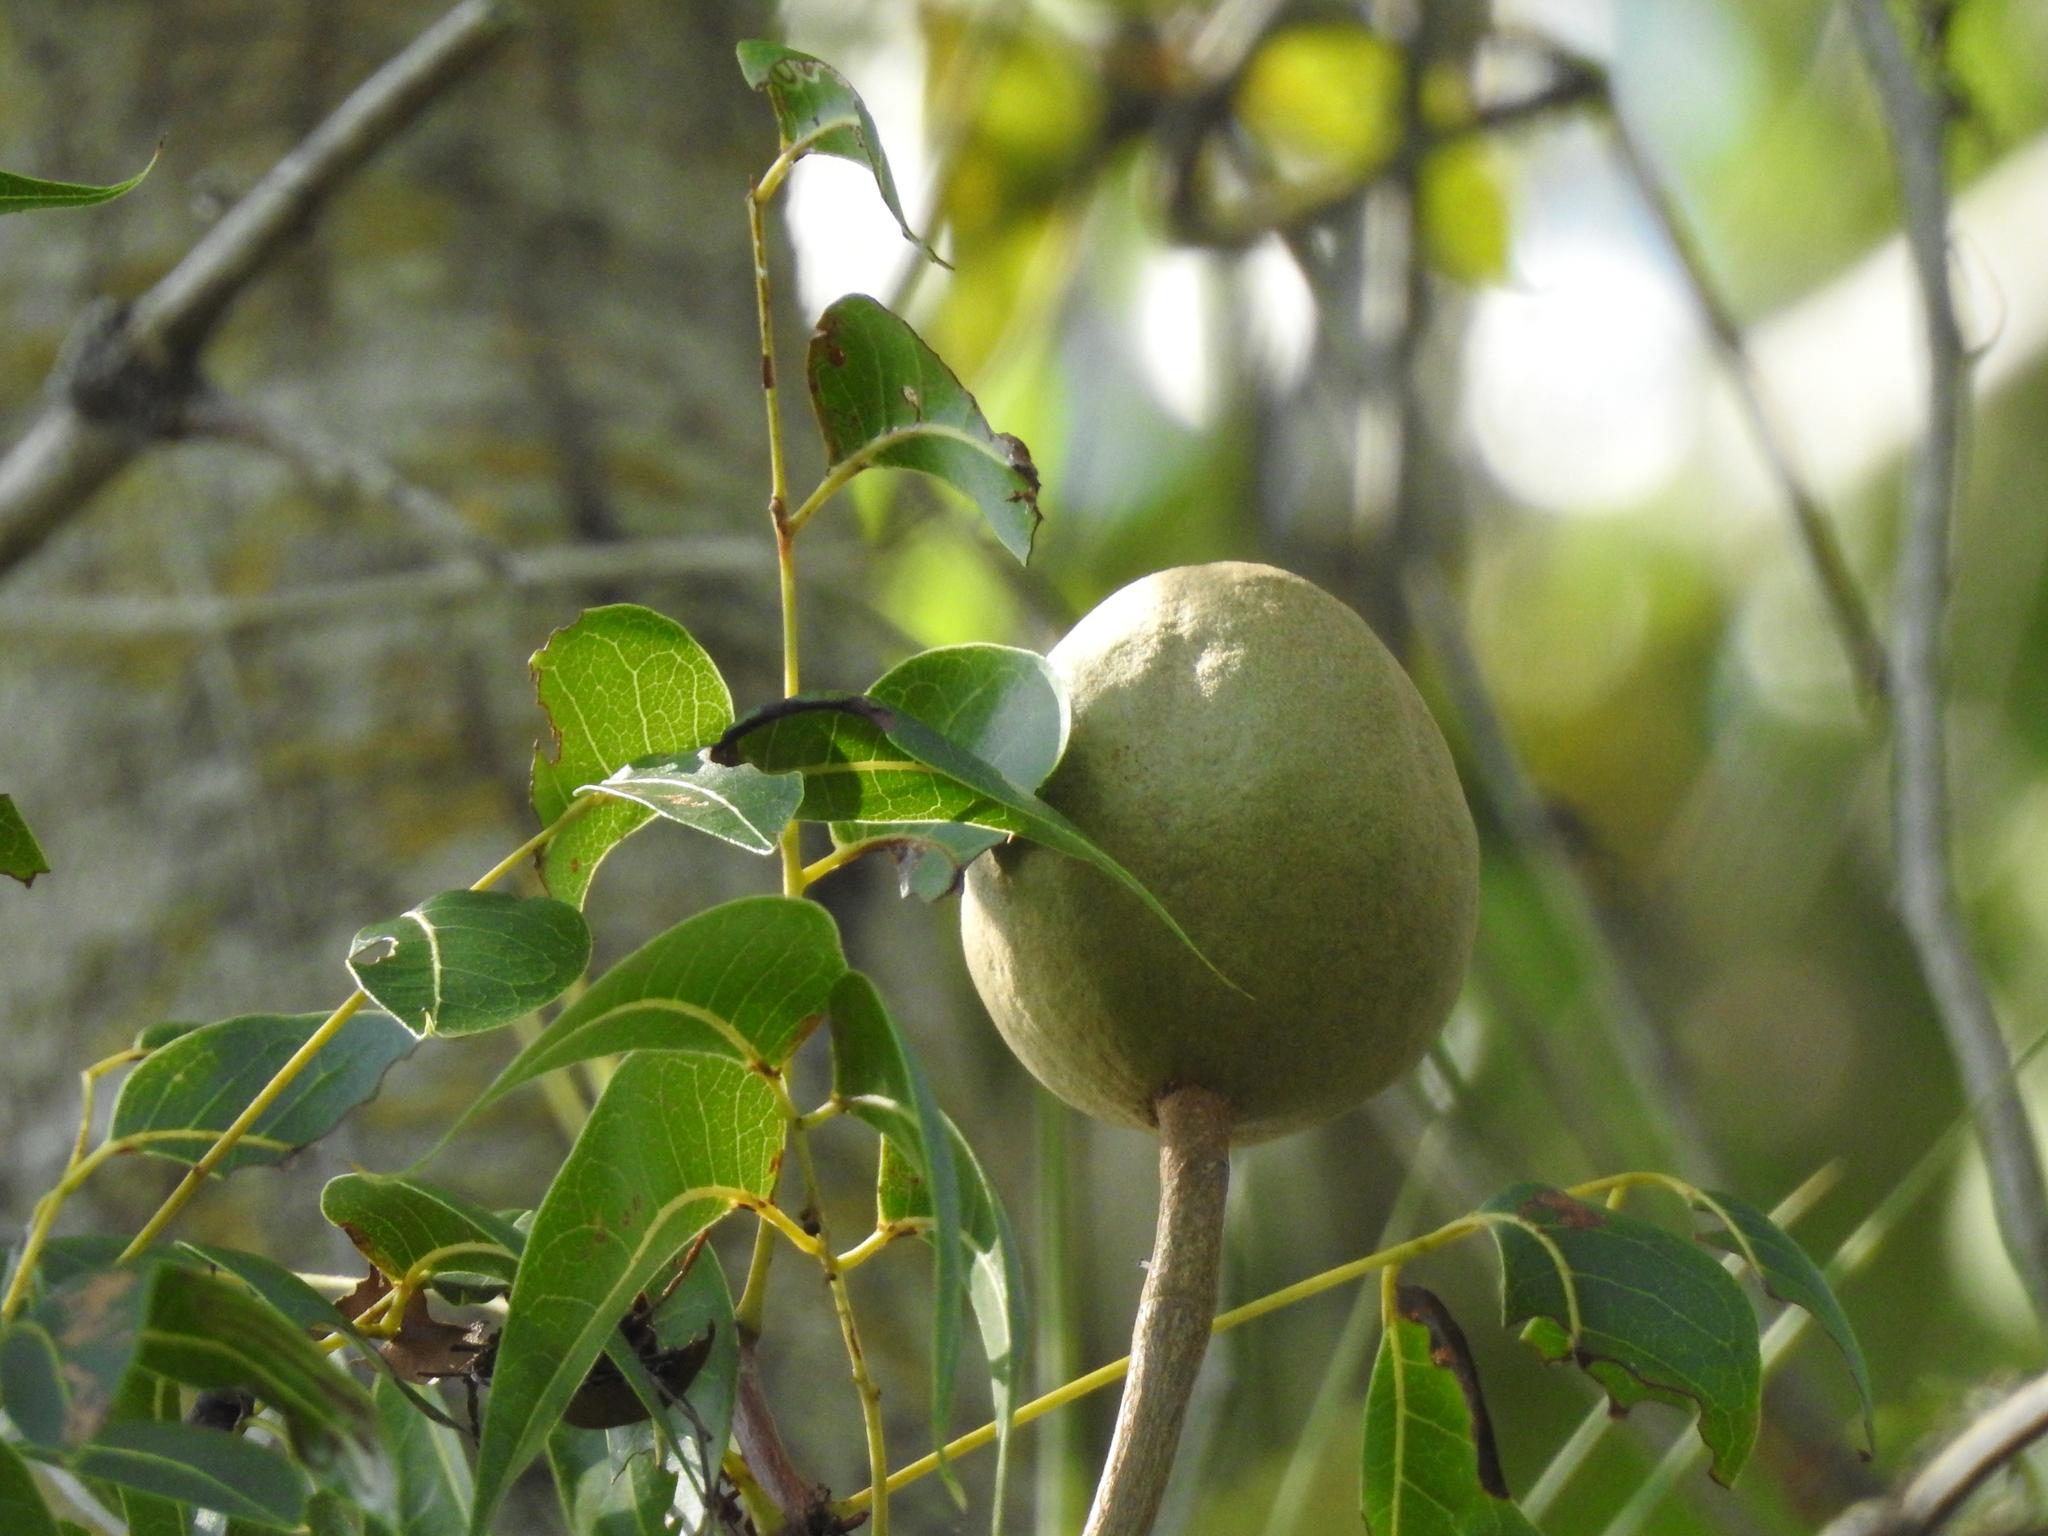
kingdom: Plantae
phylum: Tracheophyta
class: Magnoliopsida
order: Sapindales
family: Meliaceae
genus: Swietenia
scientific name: Swietenia mahagoni
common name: West indian mahogany
